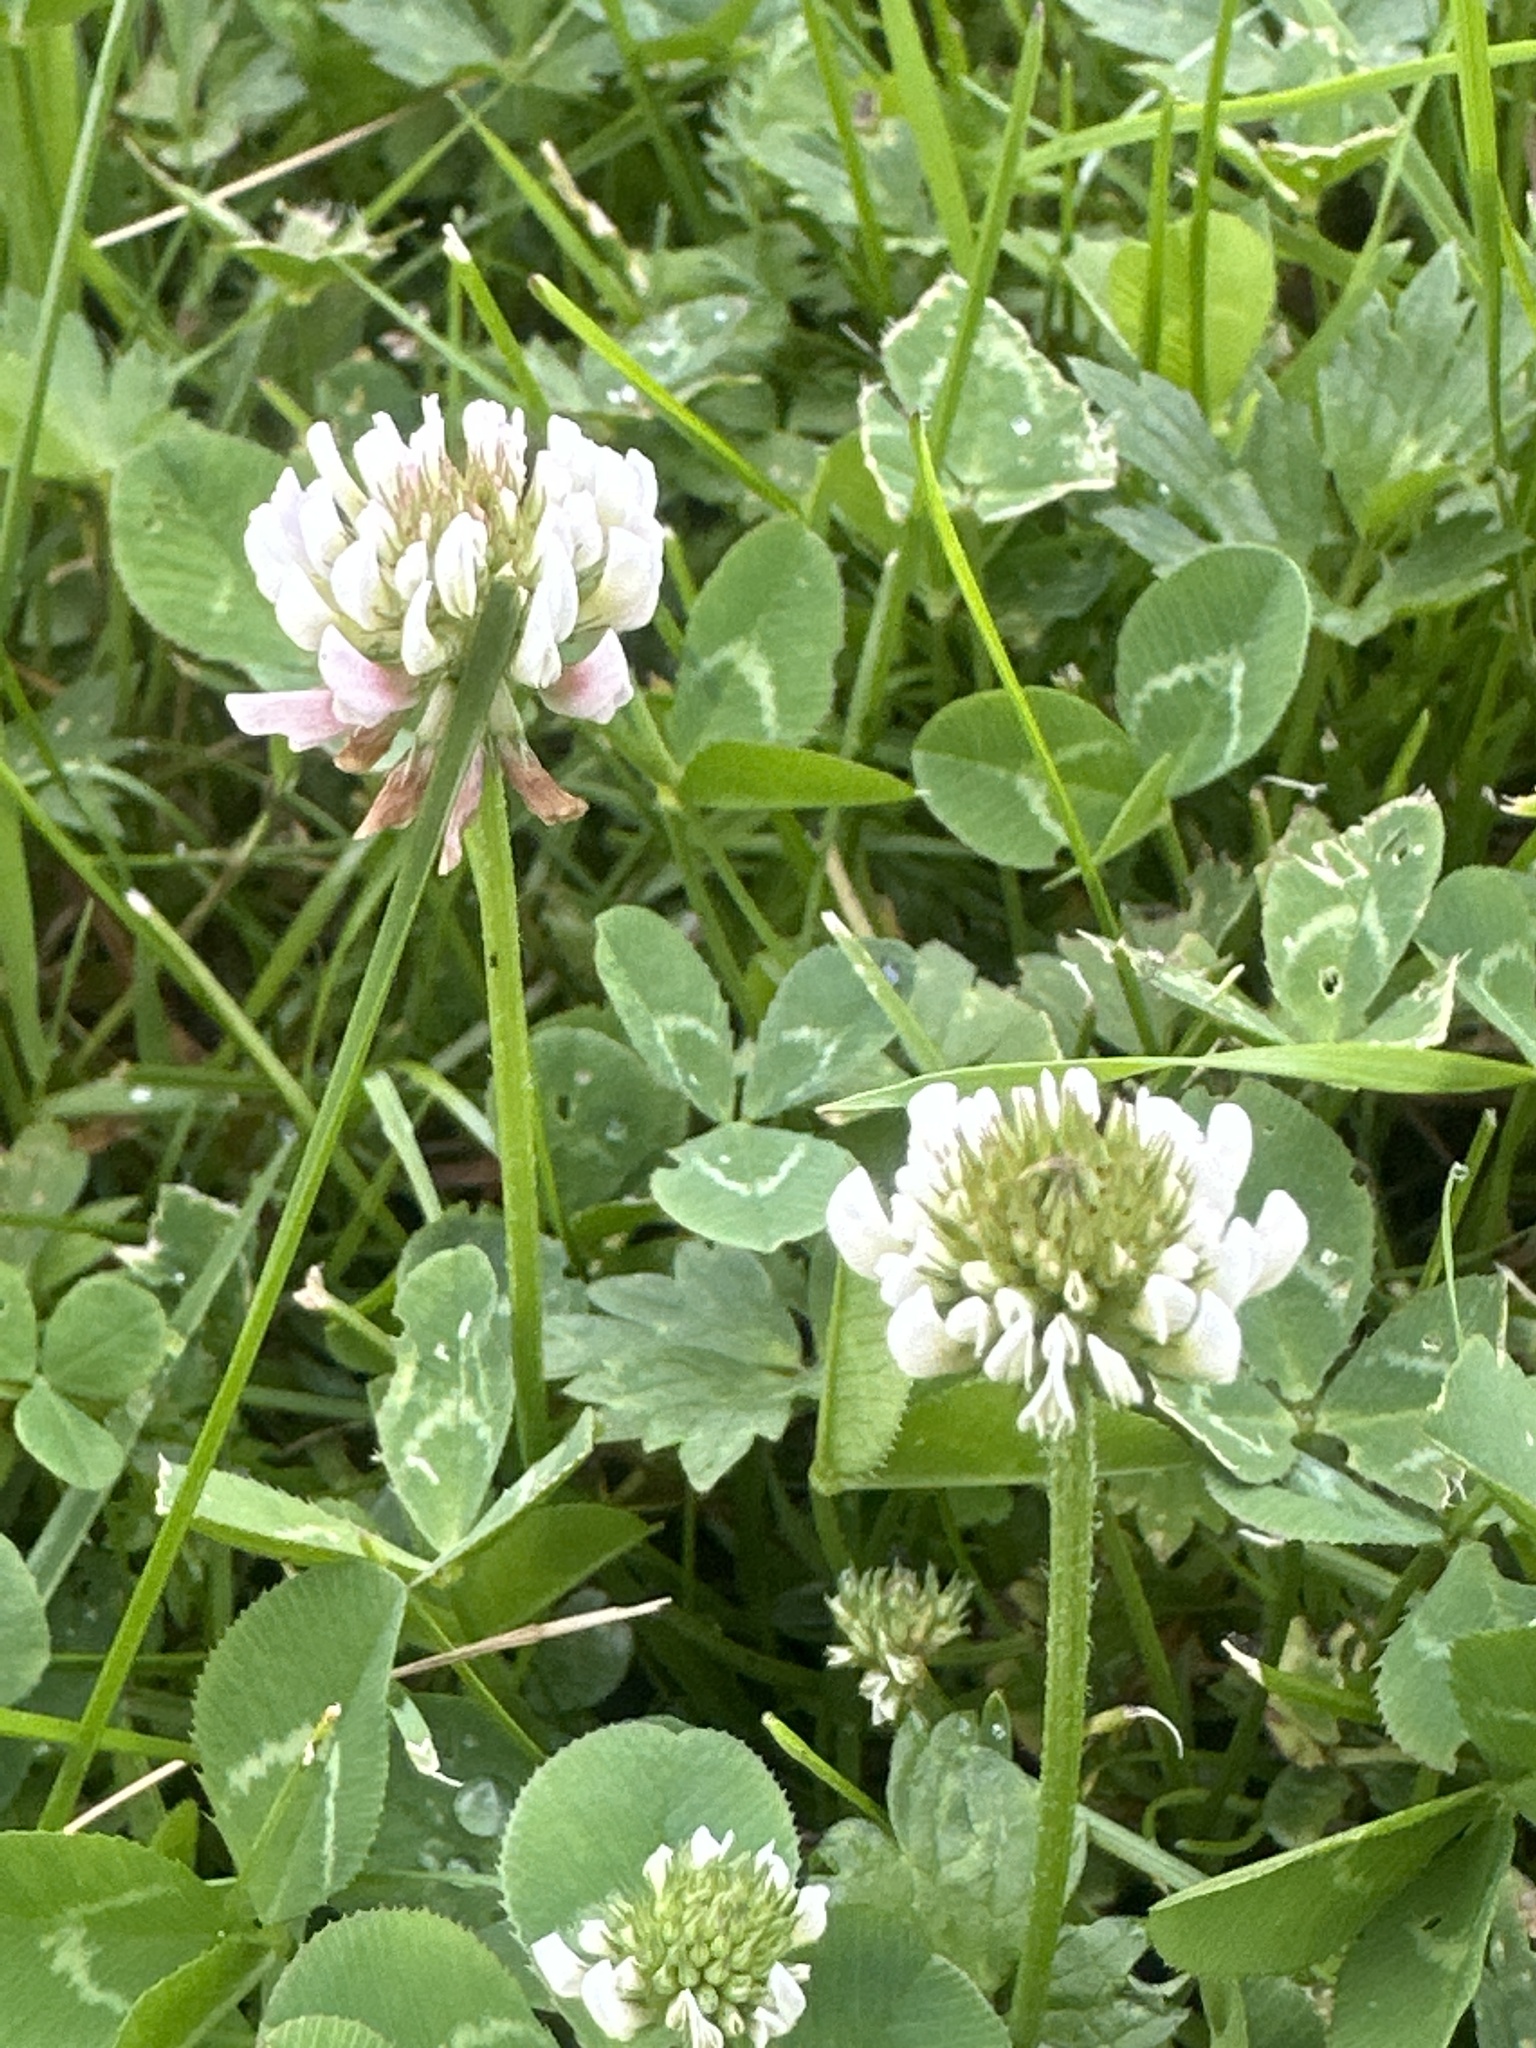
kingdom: Plantae
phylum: Tracheophyta
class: Magnoliopsida
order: Fabales
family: Fabaceae
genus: Trifolium
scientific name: Trifolium repens
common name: White clover
